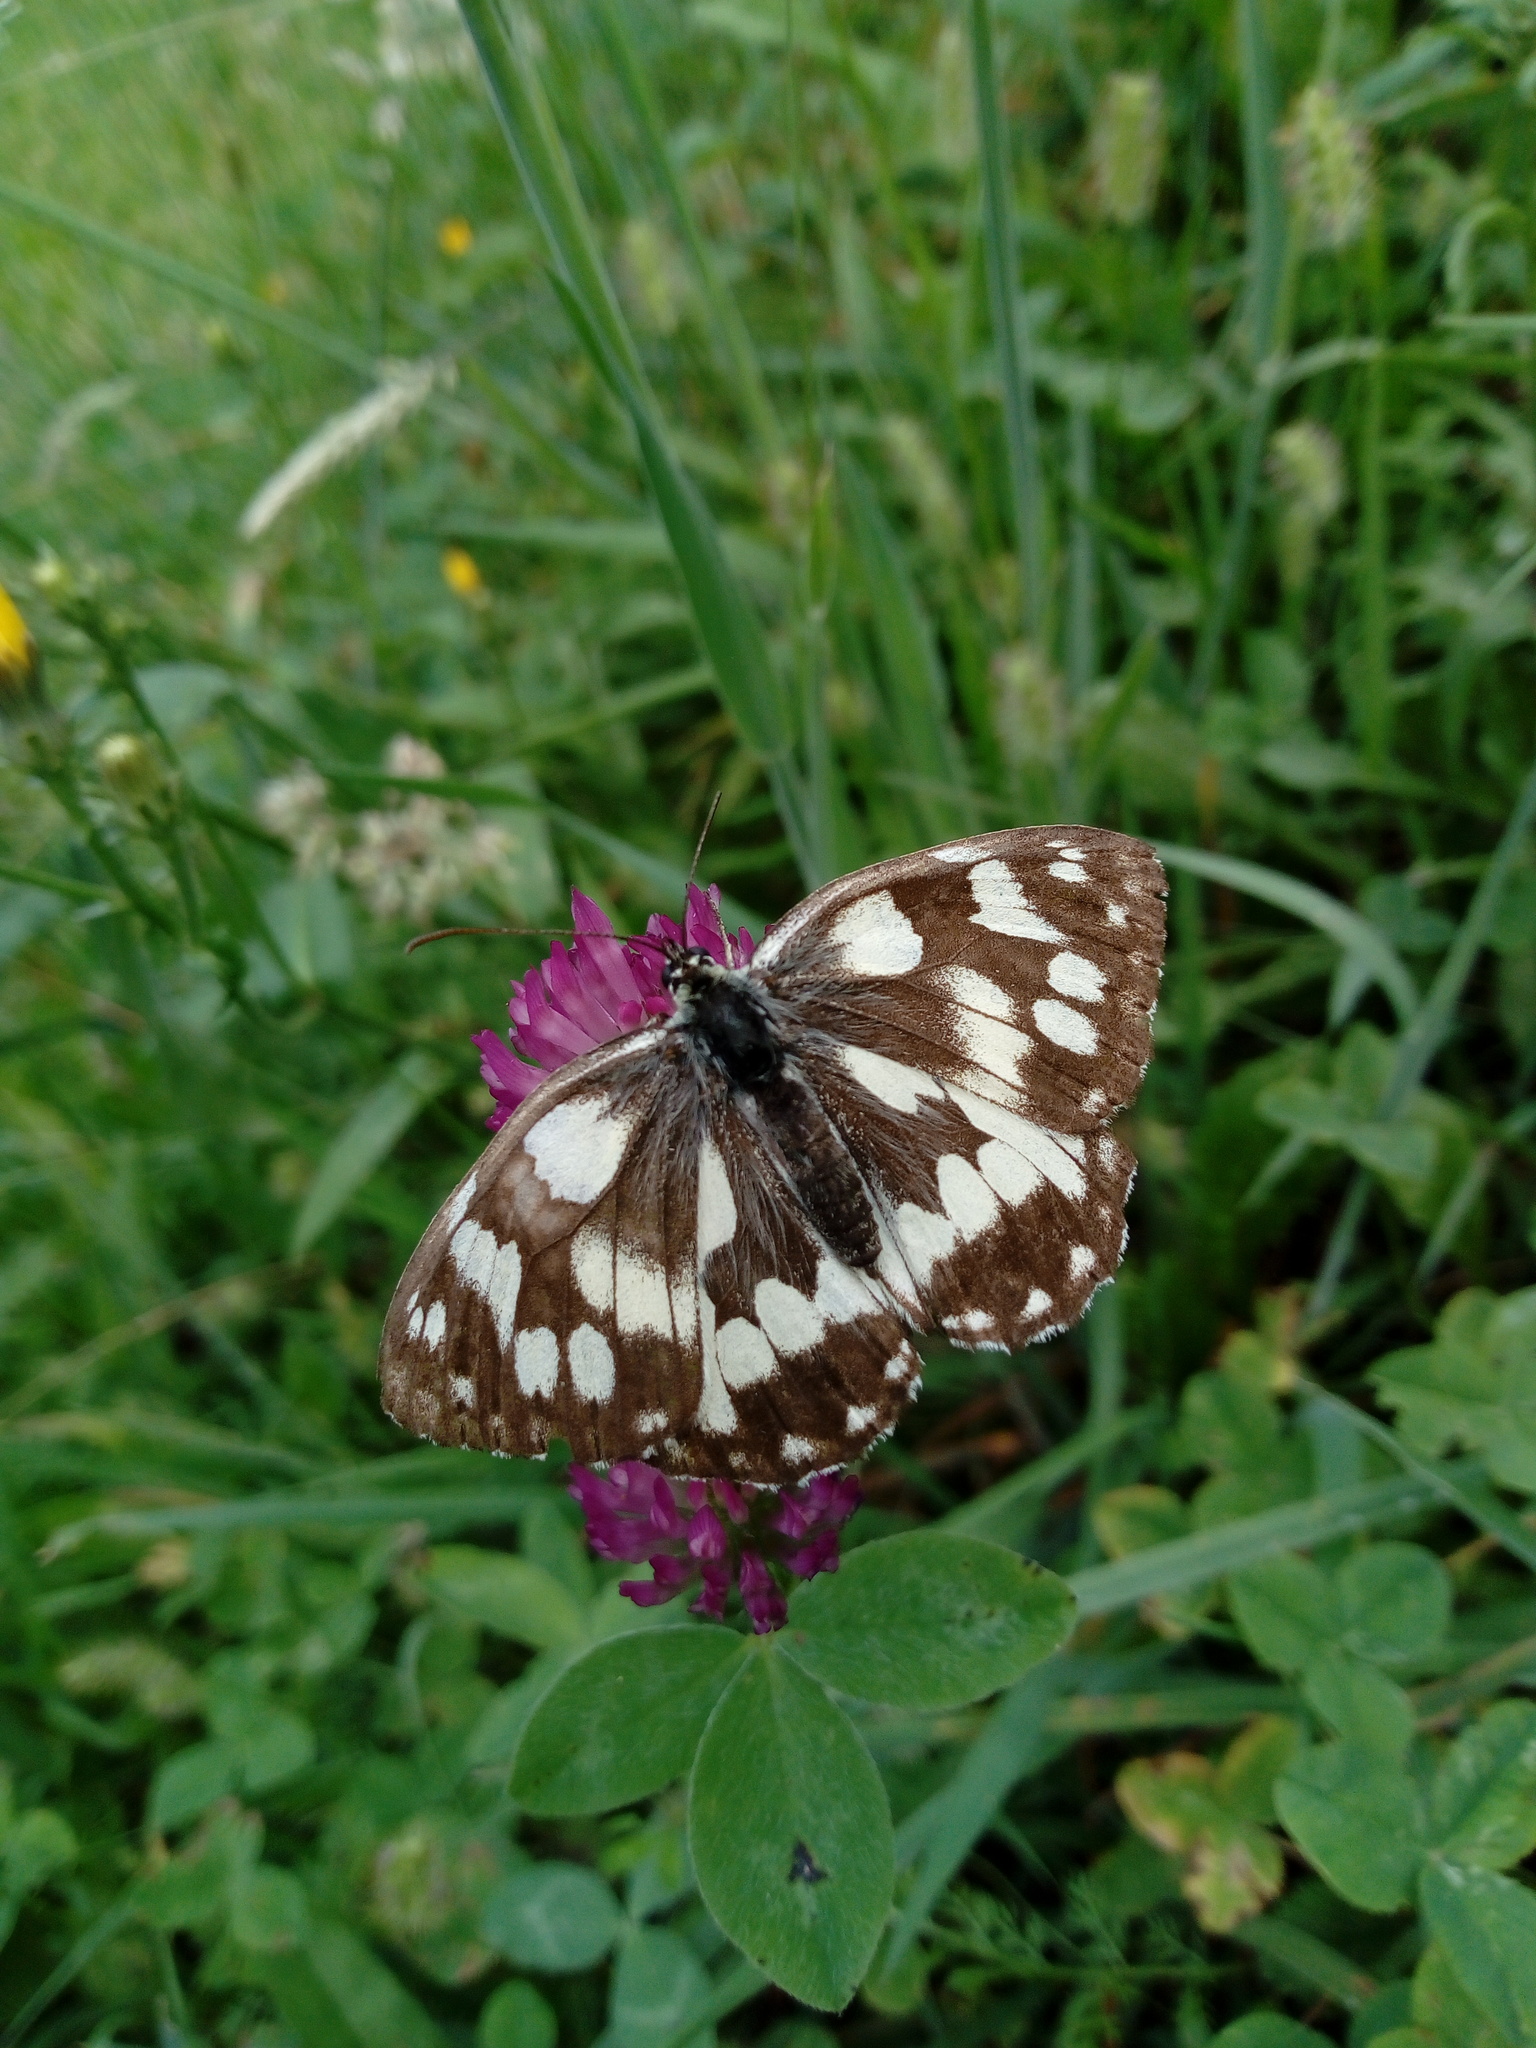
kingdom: Animalia
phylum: Arthropoda
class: Insecta
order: Lepidoptera
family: Nymphalidae
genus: Melanargia
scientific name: Melanargia galathea
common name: Marbled white
